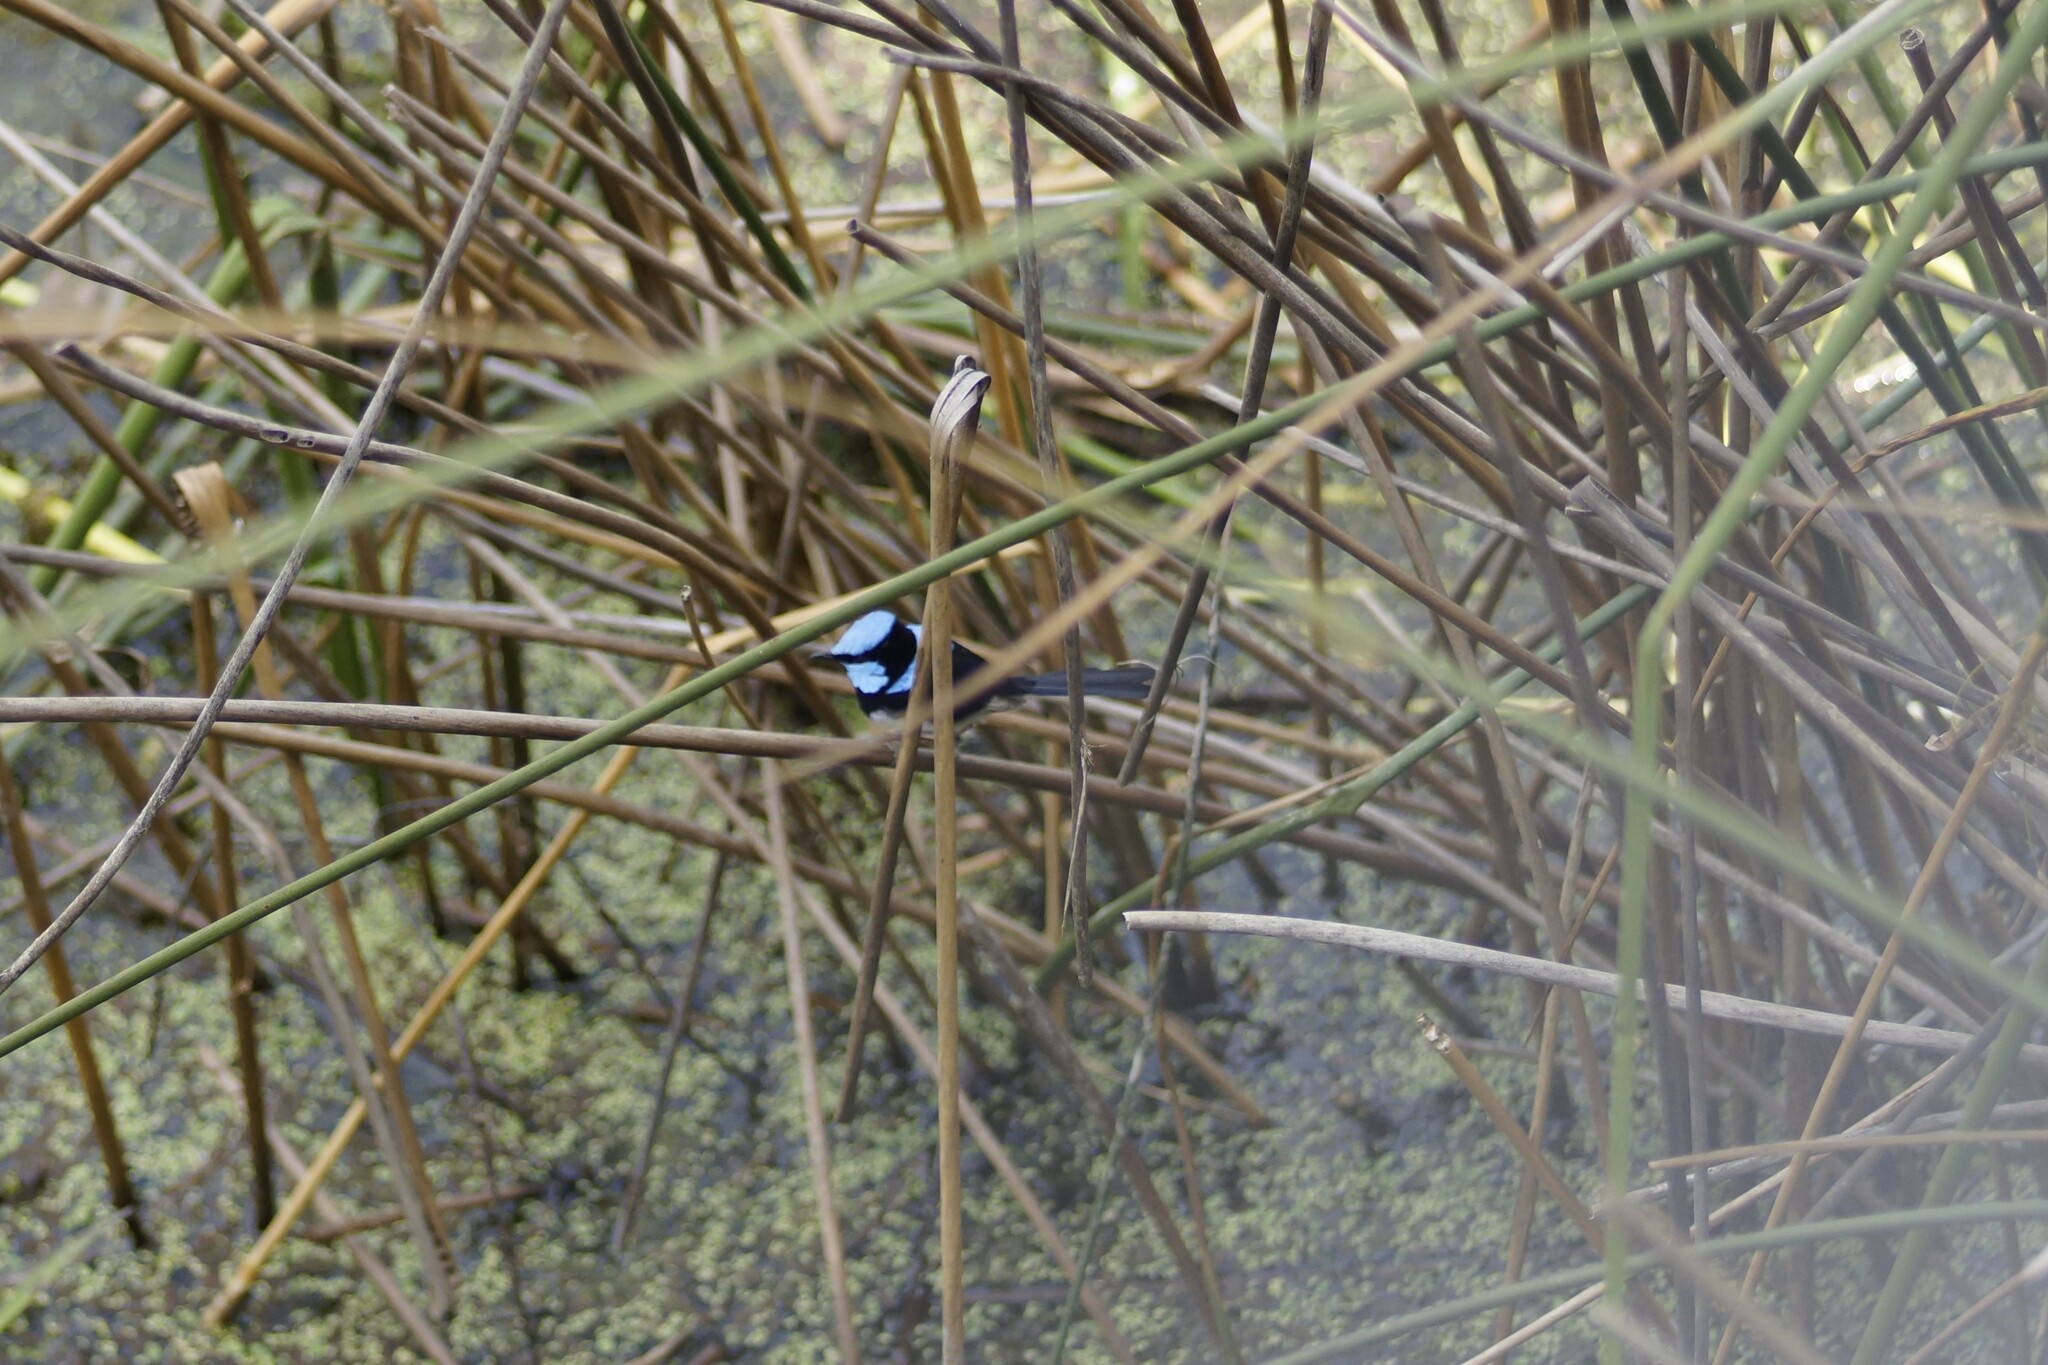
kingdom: Animalia
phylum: Chordata
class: Aves
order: Passeriformes
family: Maluridae
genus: Malurus
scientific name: Malurus cyaneus
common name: Superb fairywren
